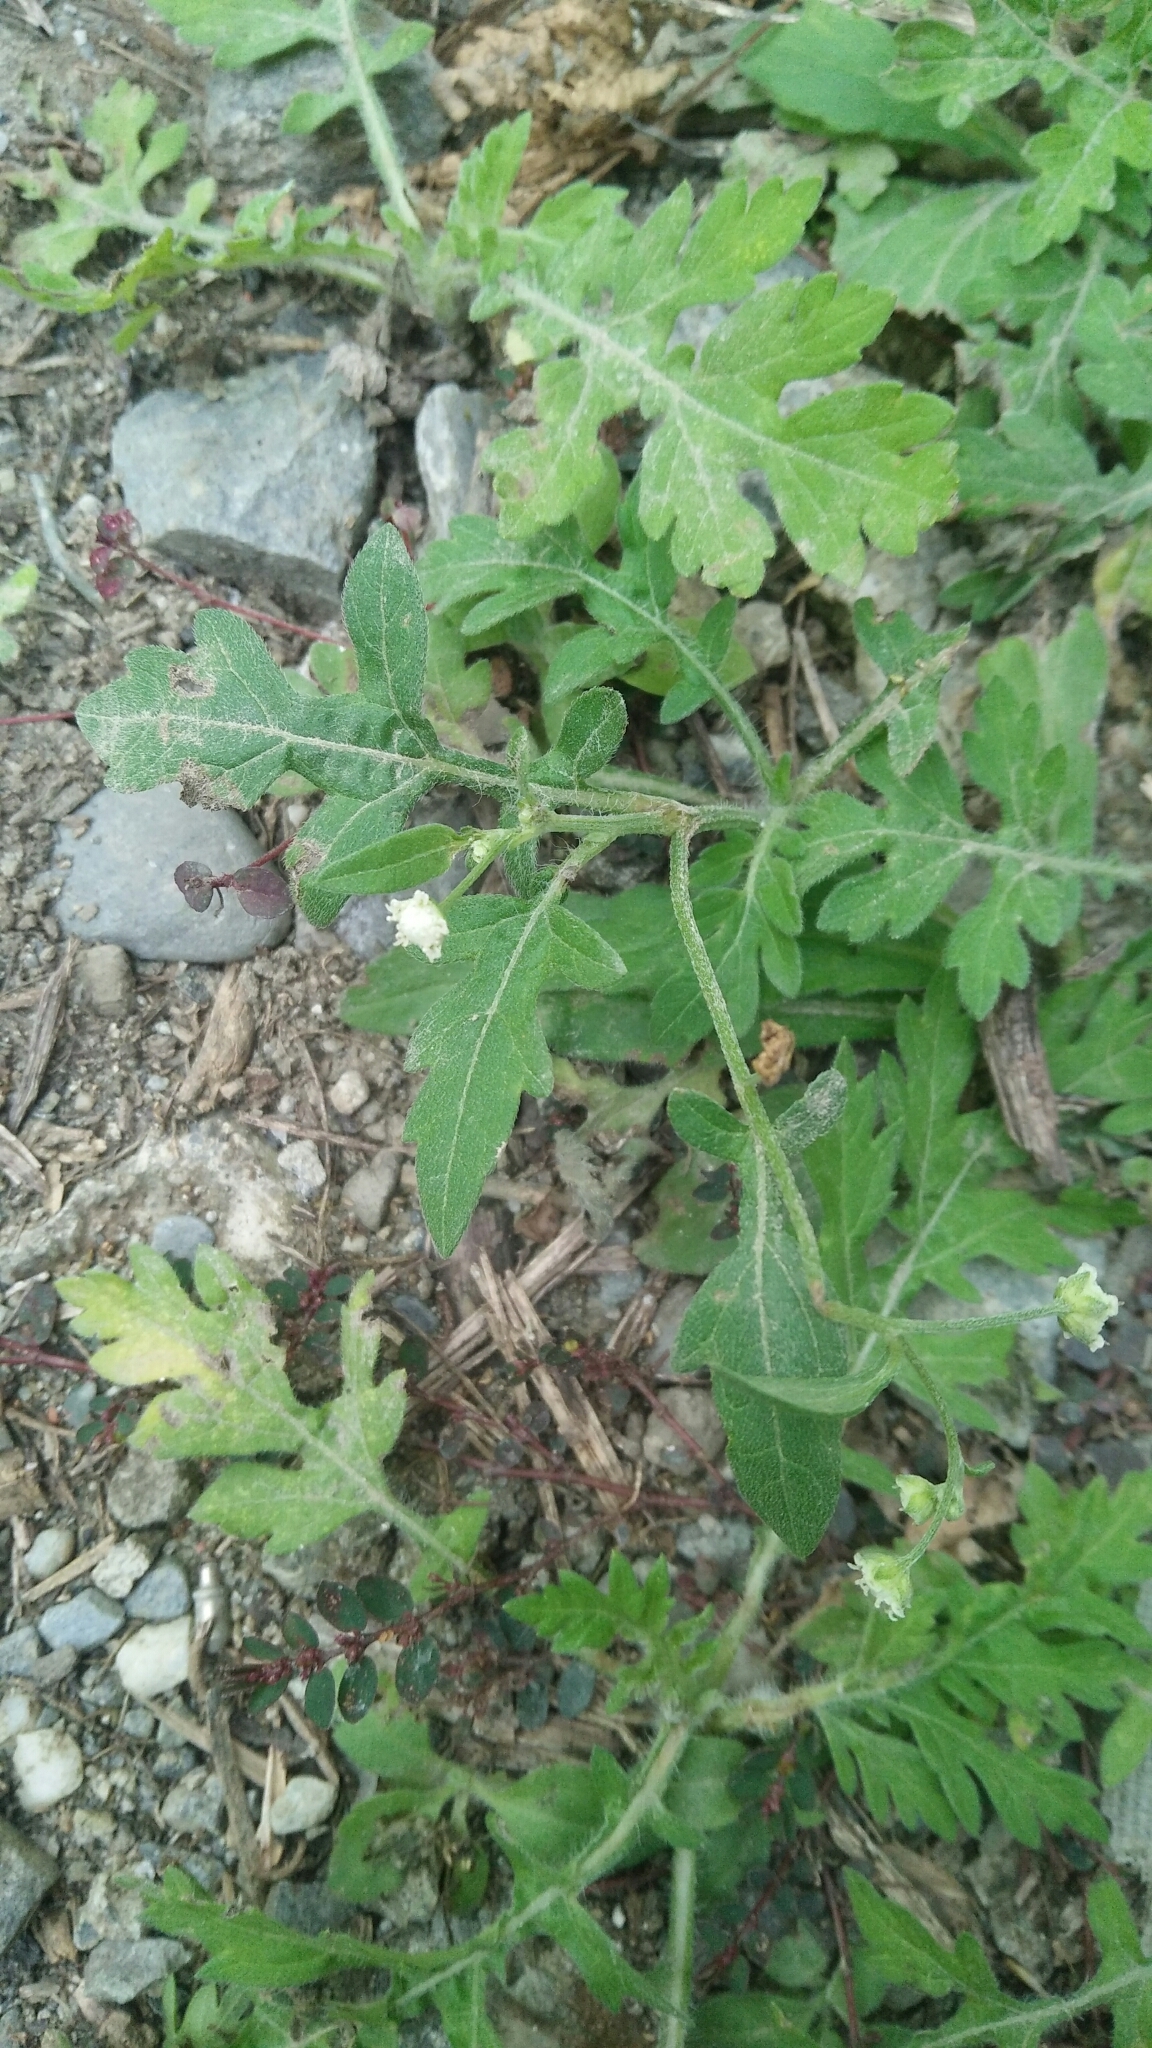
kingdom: Plantae
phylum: Tracheophyta
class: Magnoliopsida
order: Asterales
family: Asteraceae
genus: Parthenium
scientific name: Parthenium hysterophorus
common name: Santa maria feverfew
